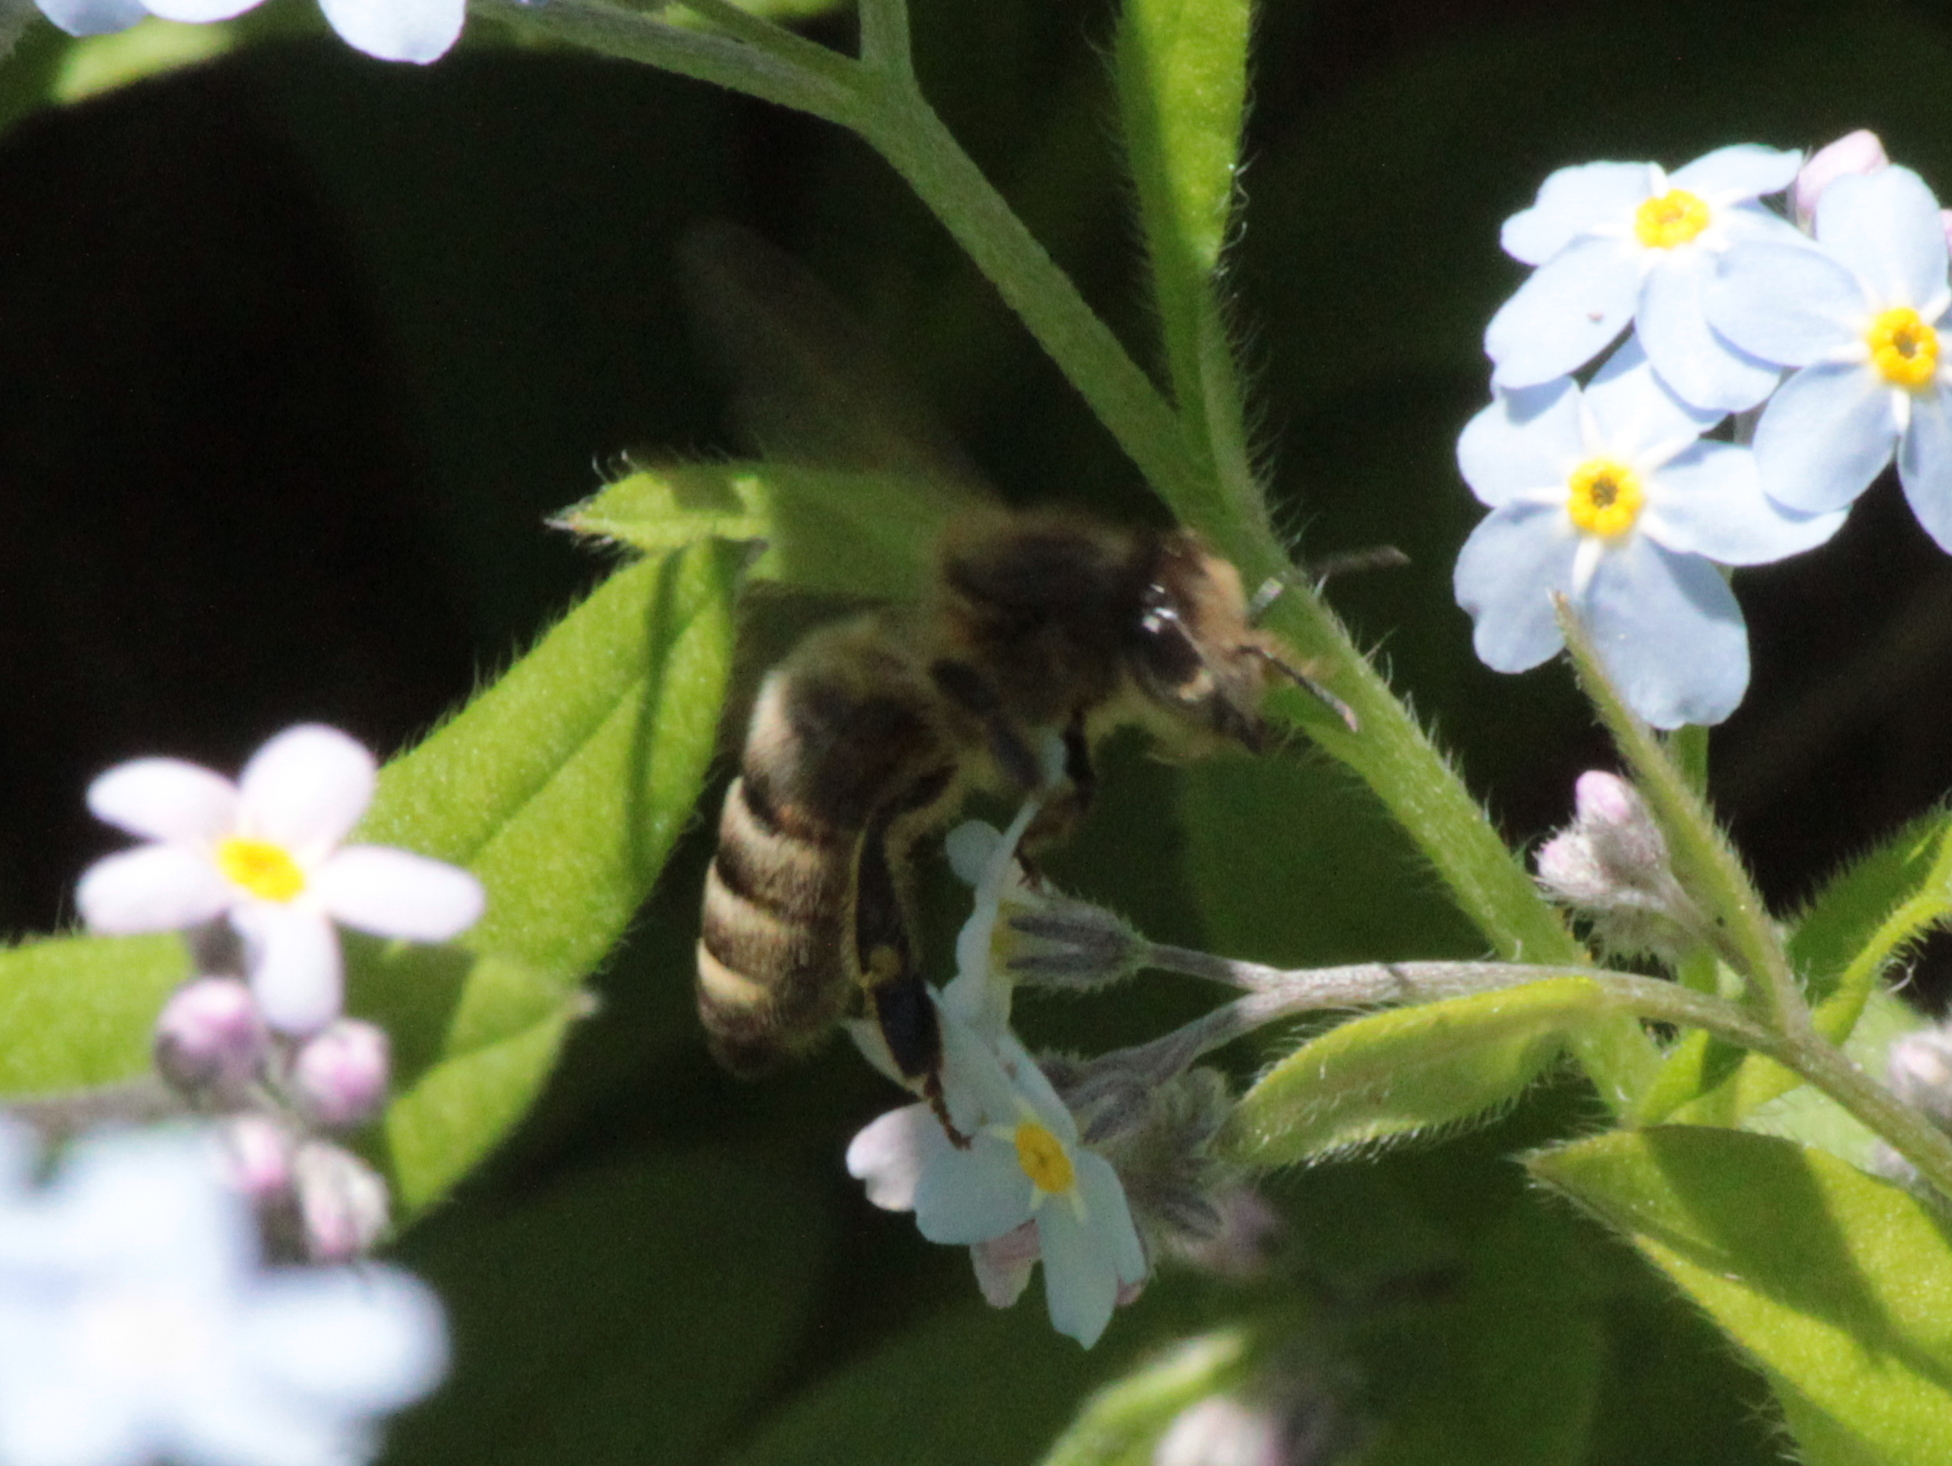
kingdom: Animalia
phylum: Arthropoda
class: Insecta
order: Hymenoptera
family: Apidae
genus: Apis
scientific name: Apis mellifera
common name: Honey bee
